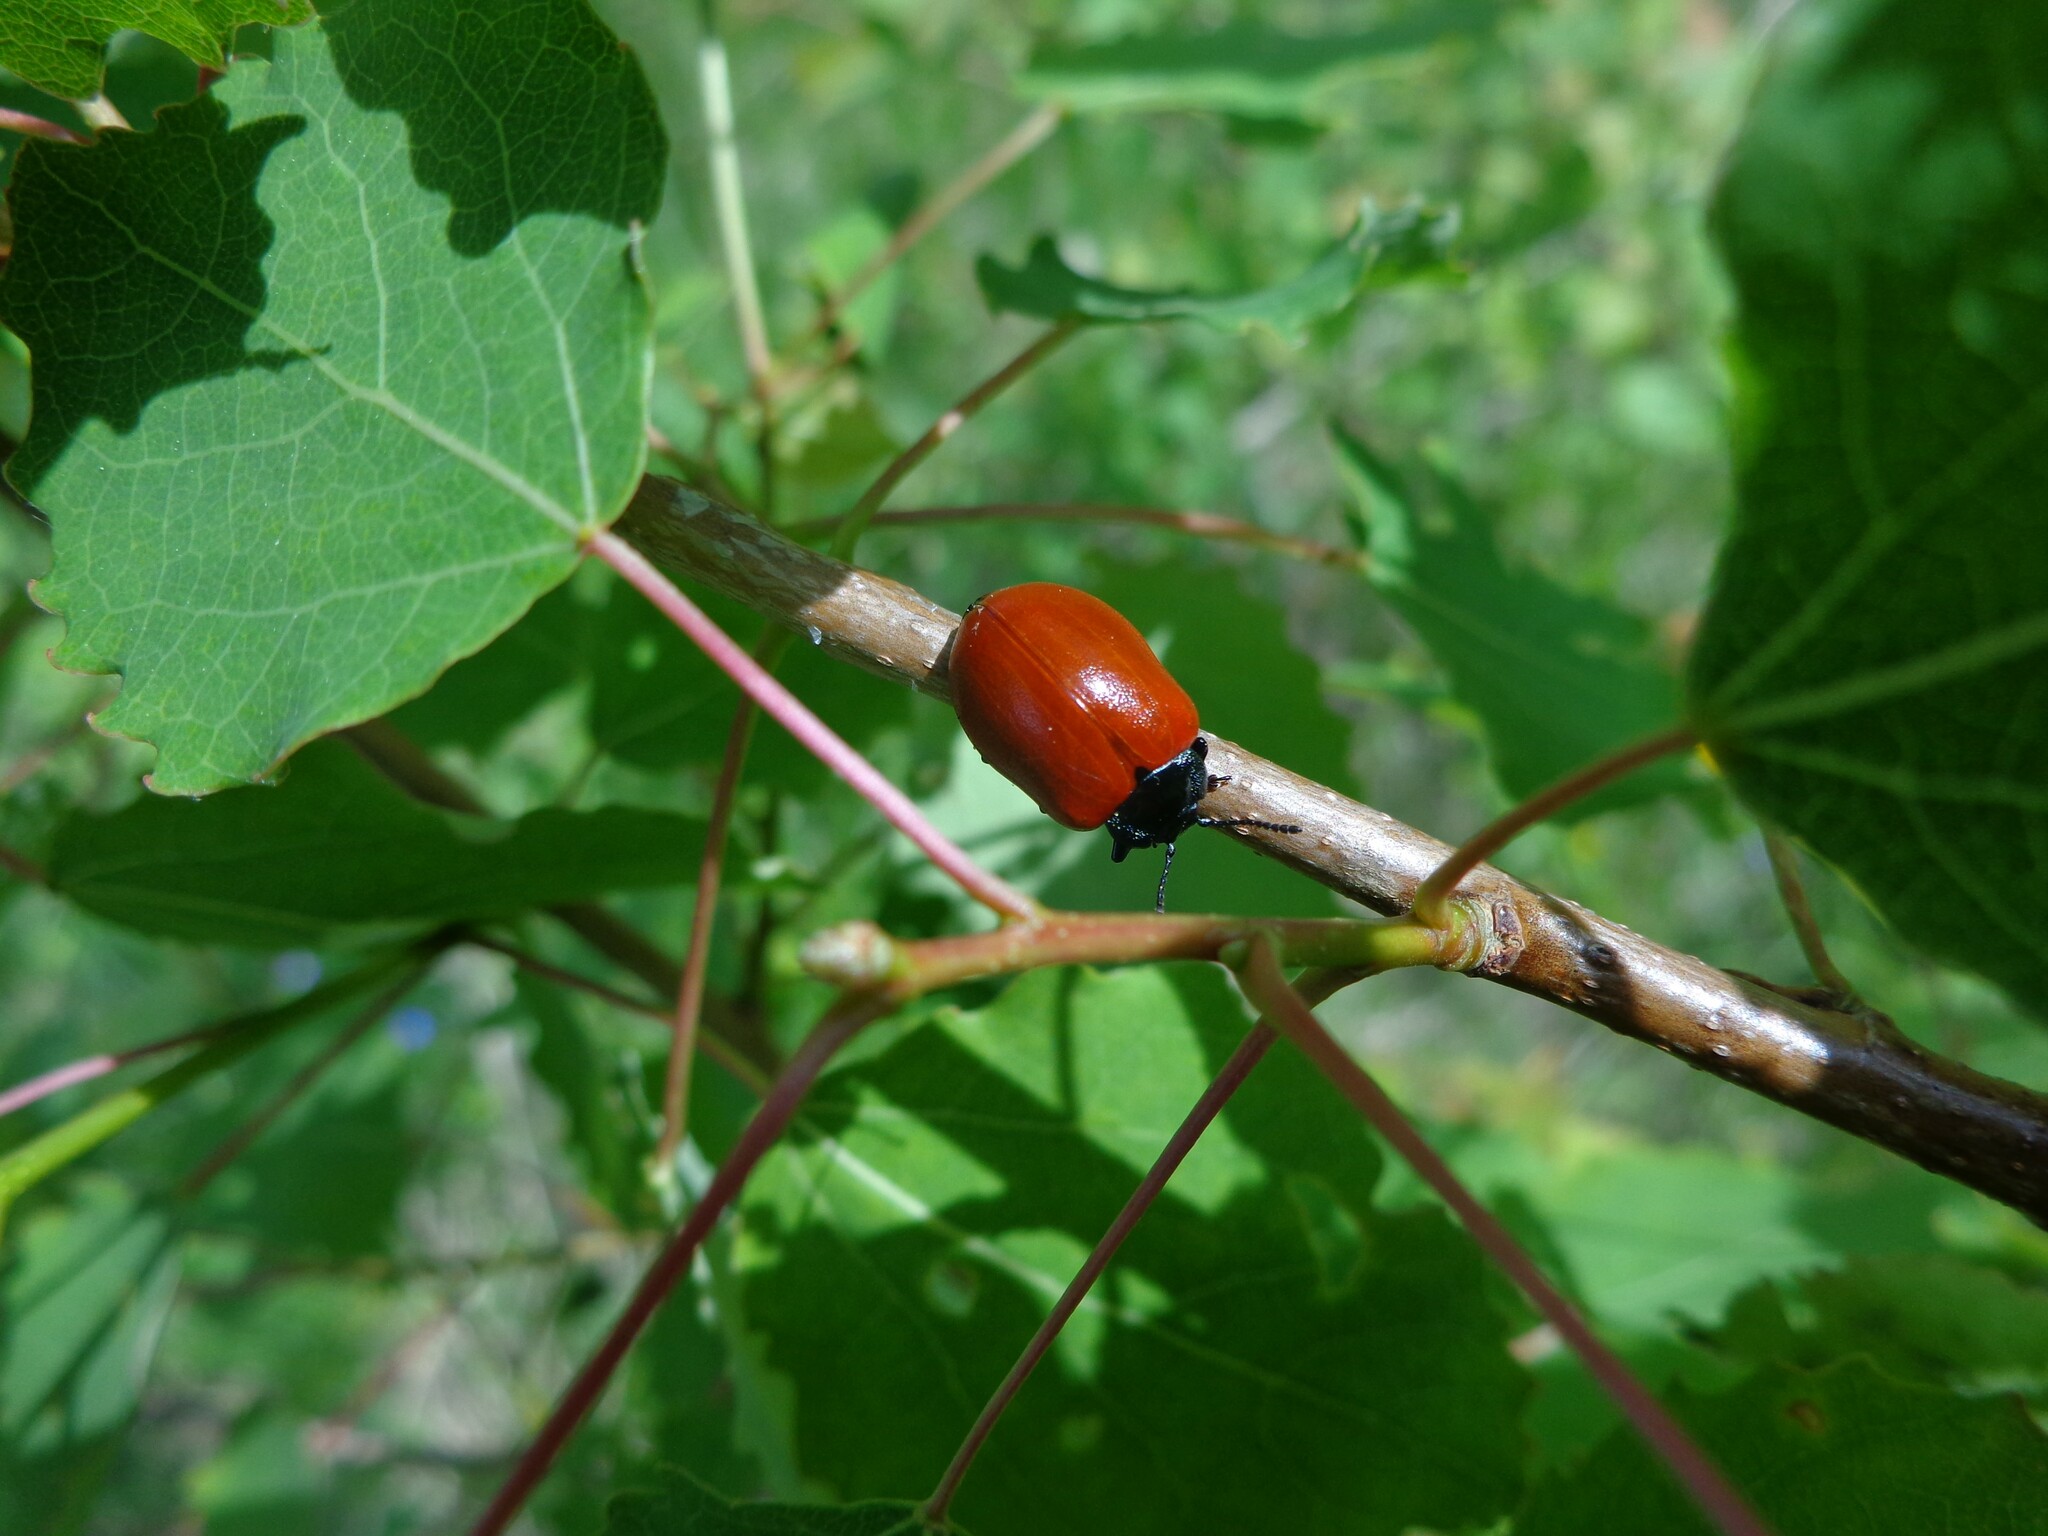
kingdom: Animalia
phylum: Arthropoda
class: Insecta
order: Coleoptera
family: Chrysomelidae
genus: Chrysomela
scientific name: Chrysomela populi
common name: Red poplar leaf beetle
